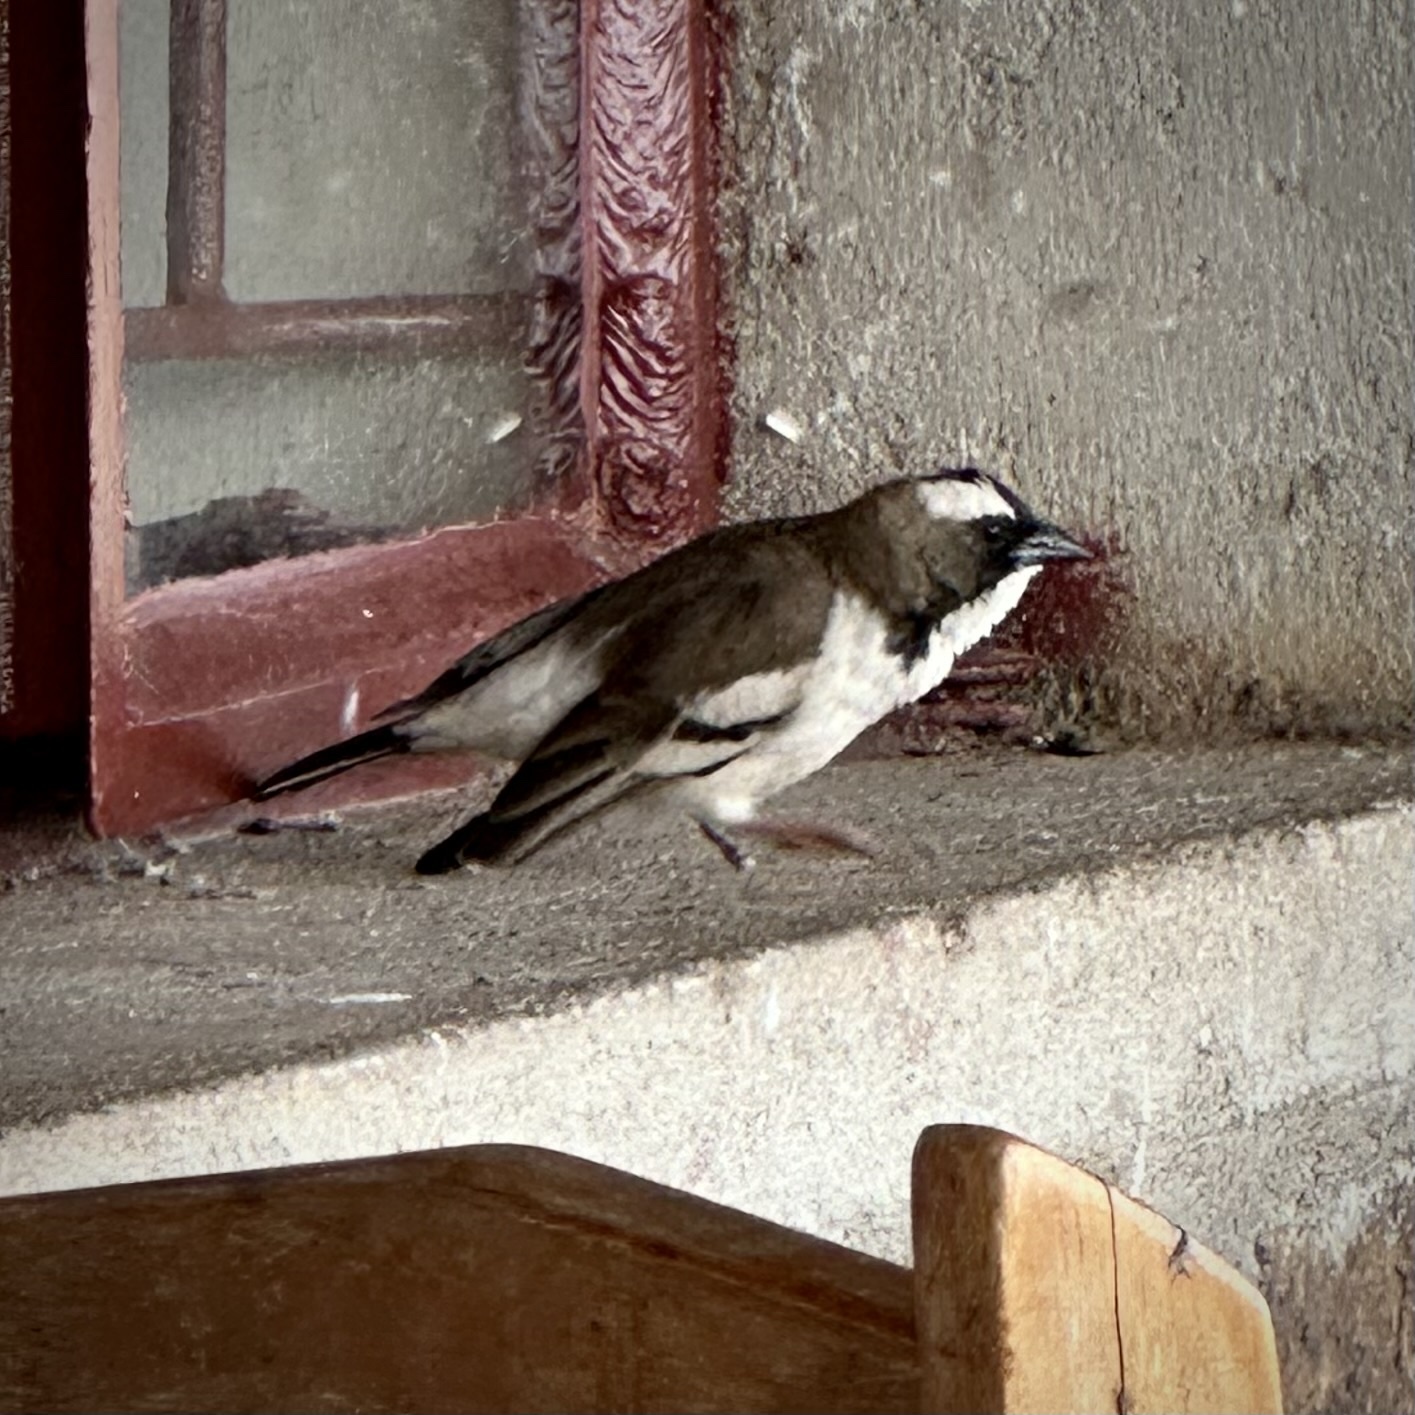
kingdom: Animalia
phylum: Chordata
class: Aves
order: Passeriformes
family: Passeridae
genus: Plocepasser
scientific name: Plocepasser mahali
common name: White-browed sparrow-weaver
